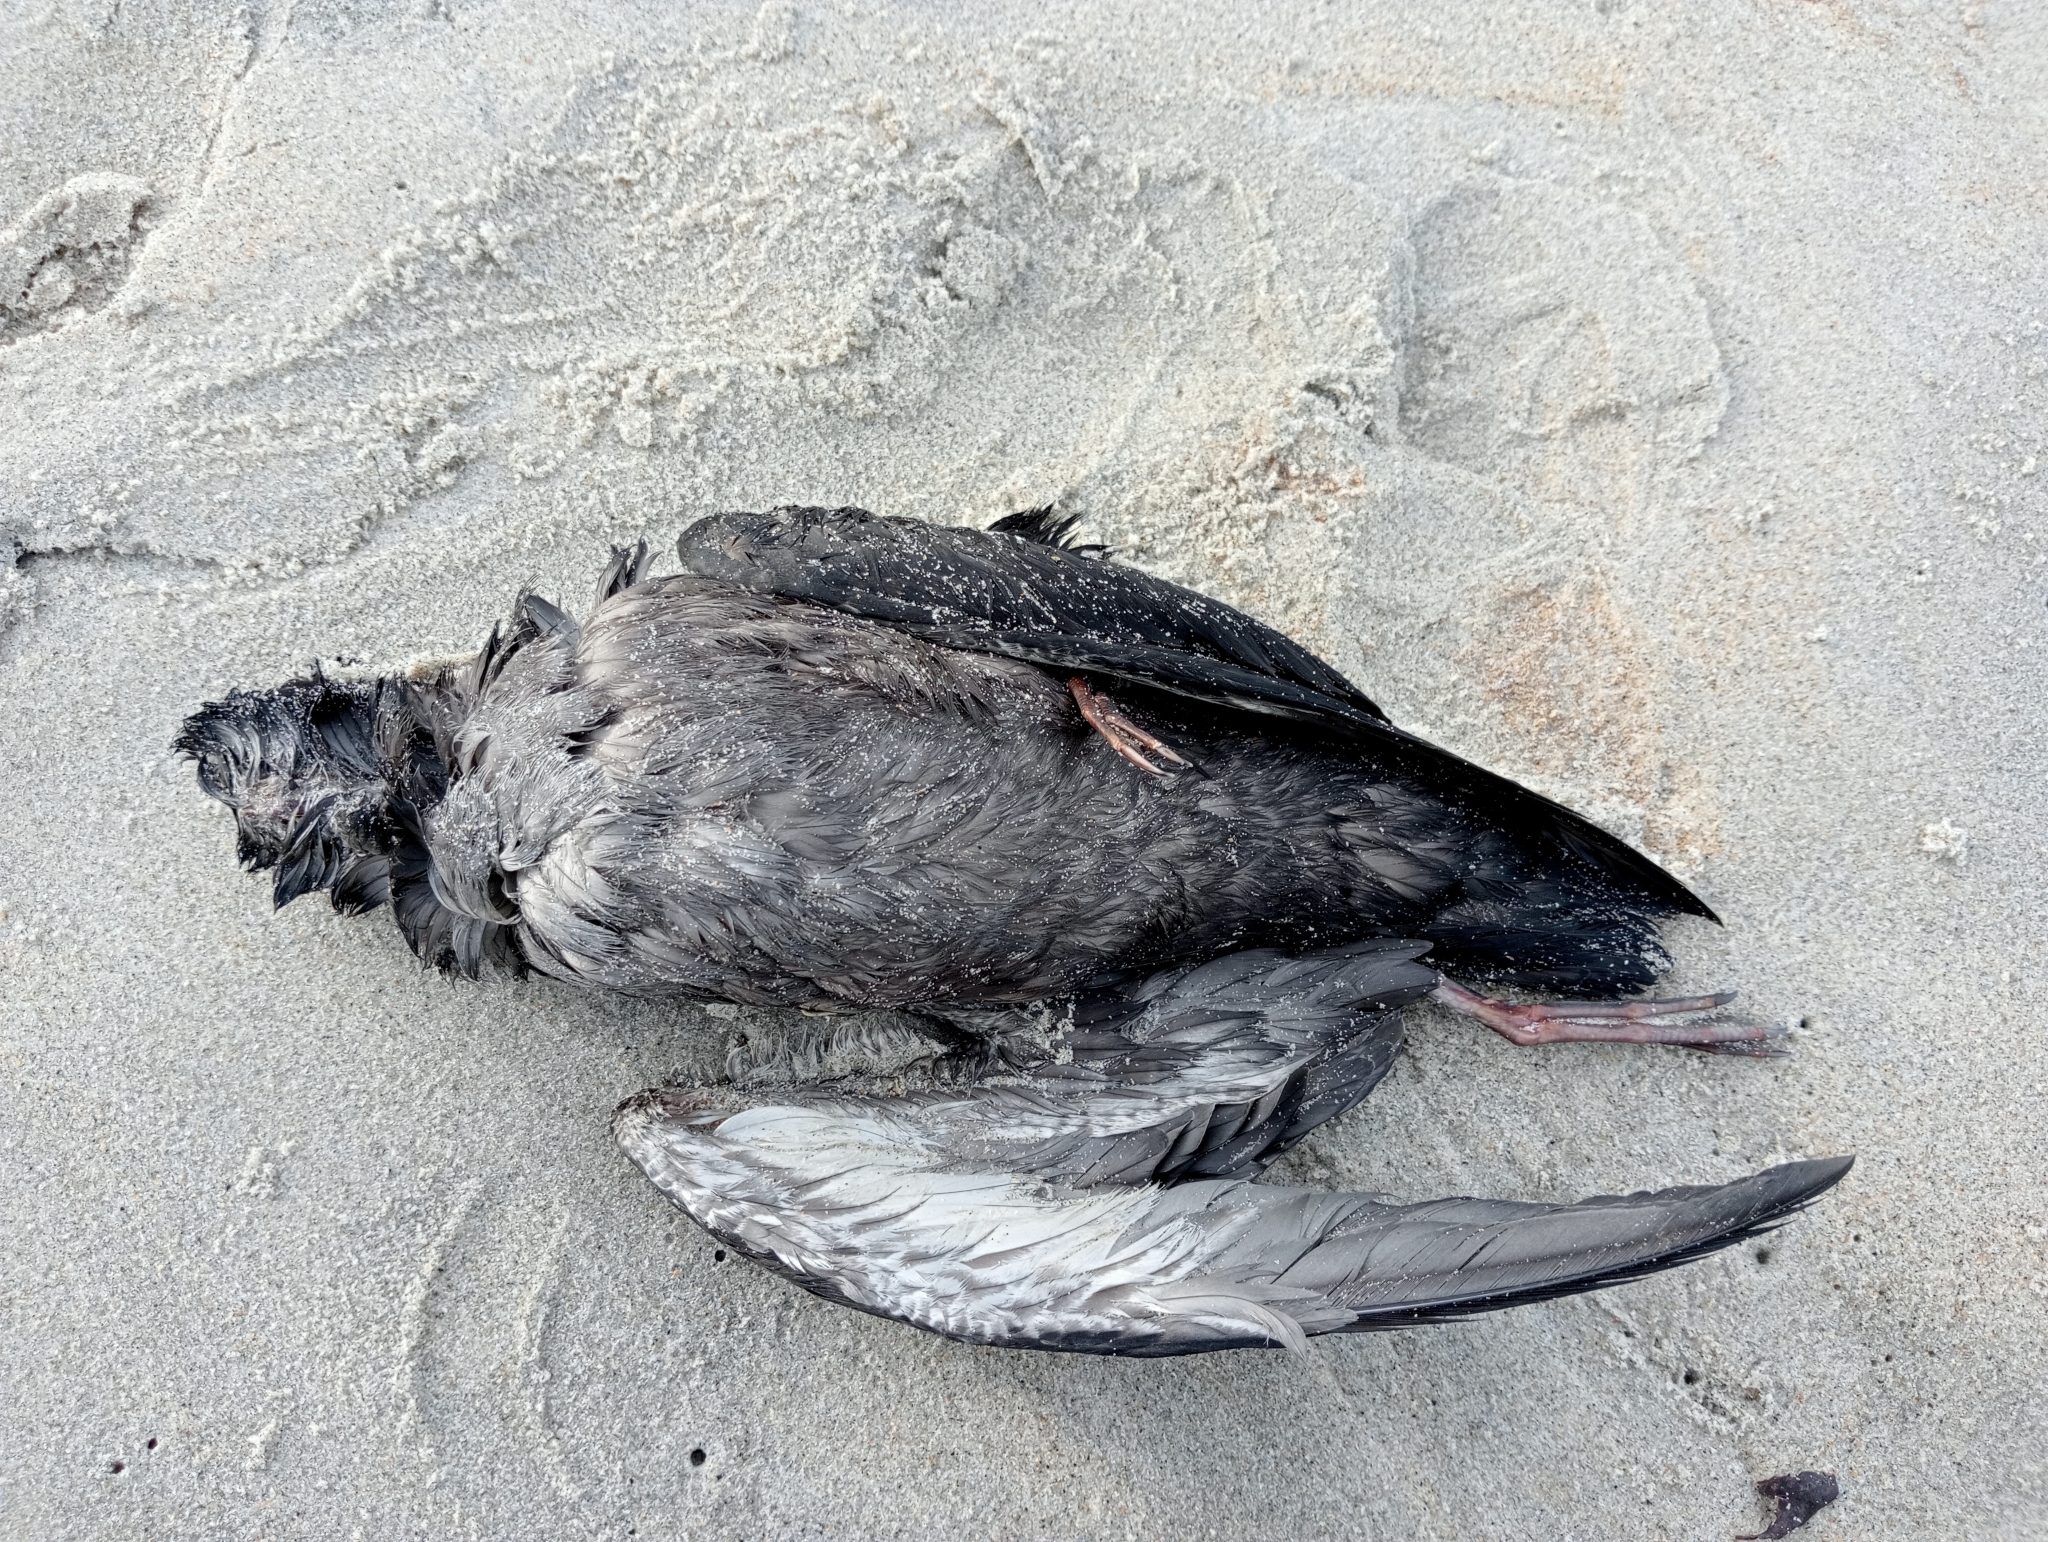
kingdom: Animalia
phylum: Chordata
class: Aves
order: Procellariiformes
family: Procellariidae
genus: Puffinus
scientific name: Puffinus griseus
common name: Sooty shearwater
